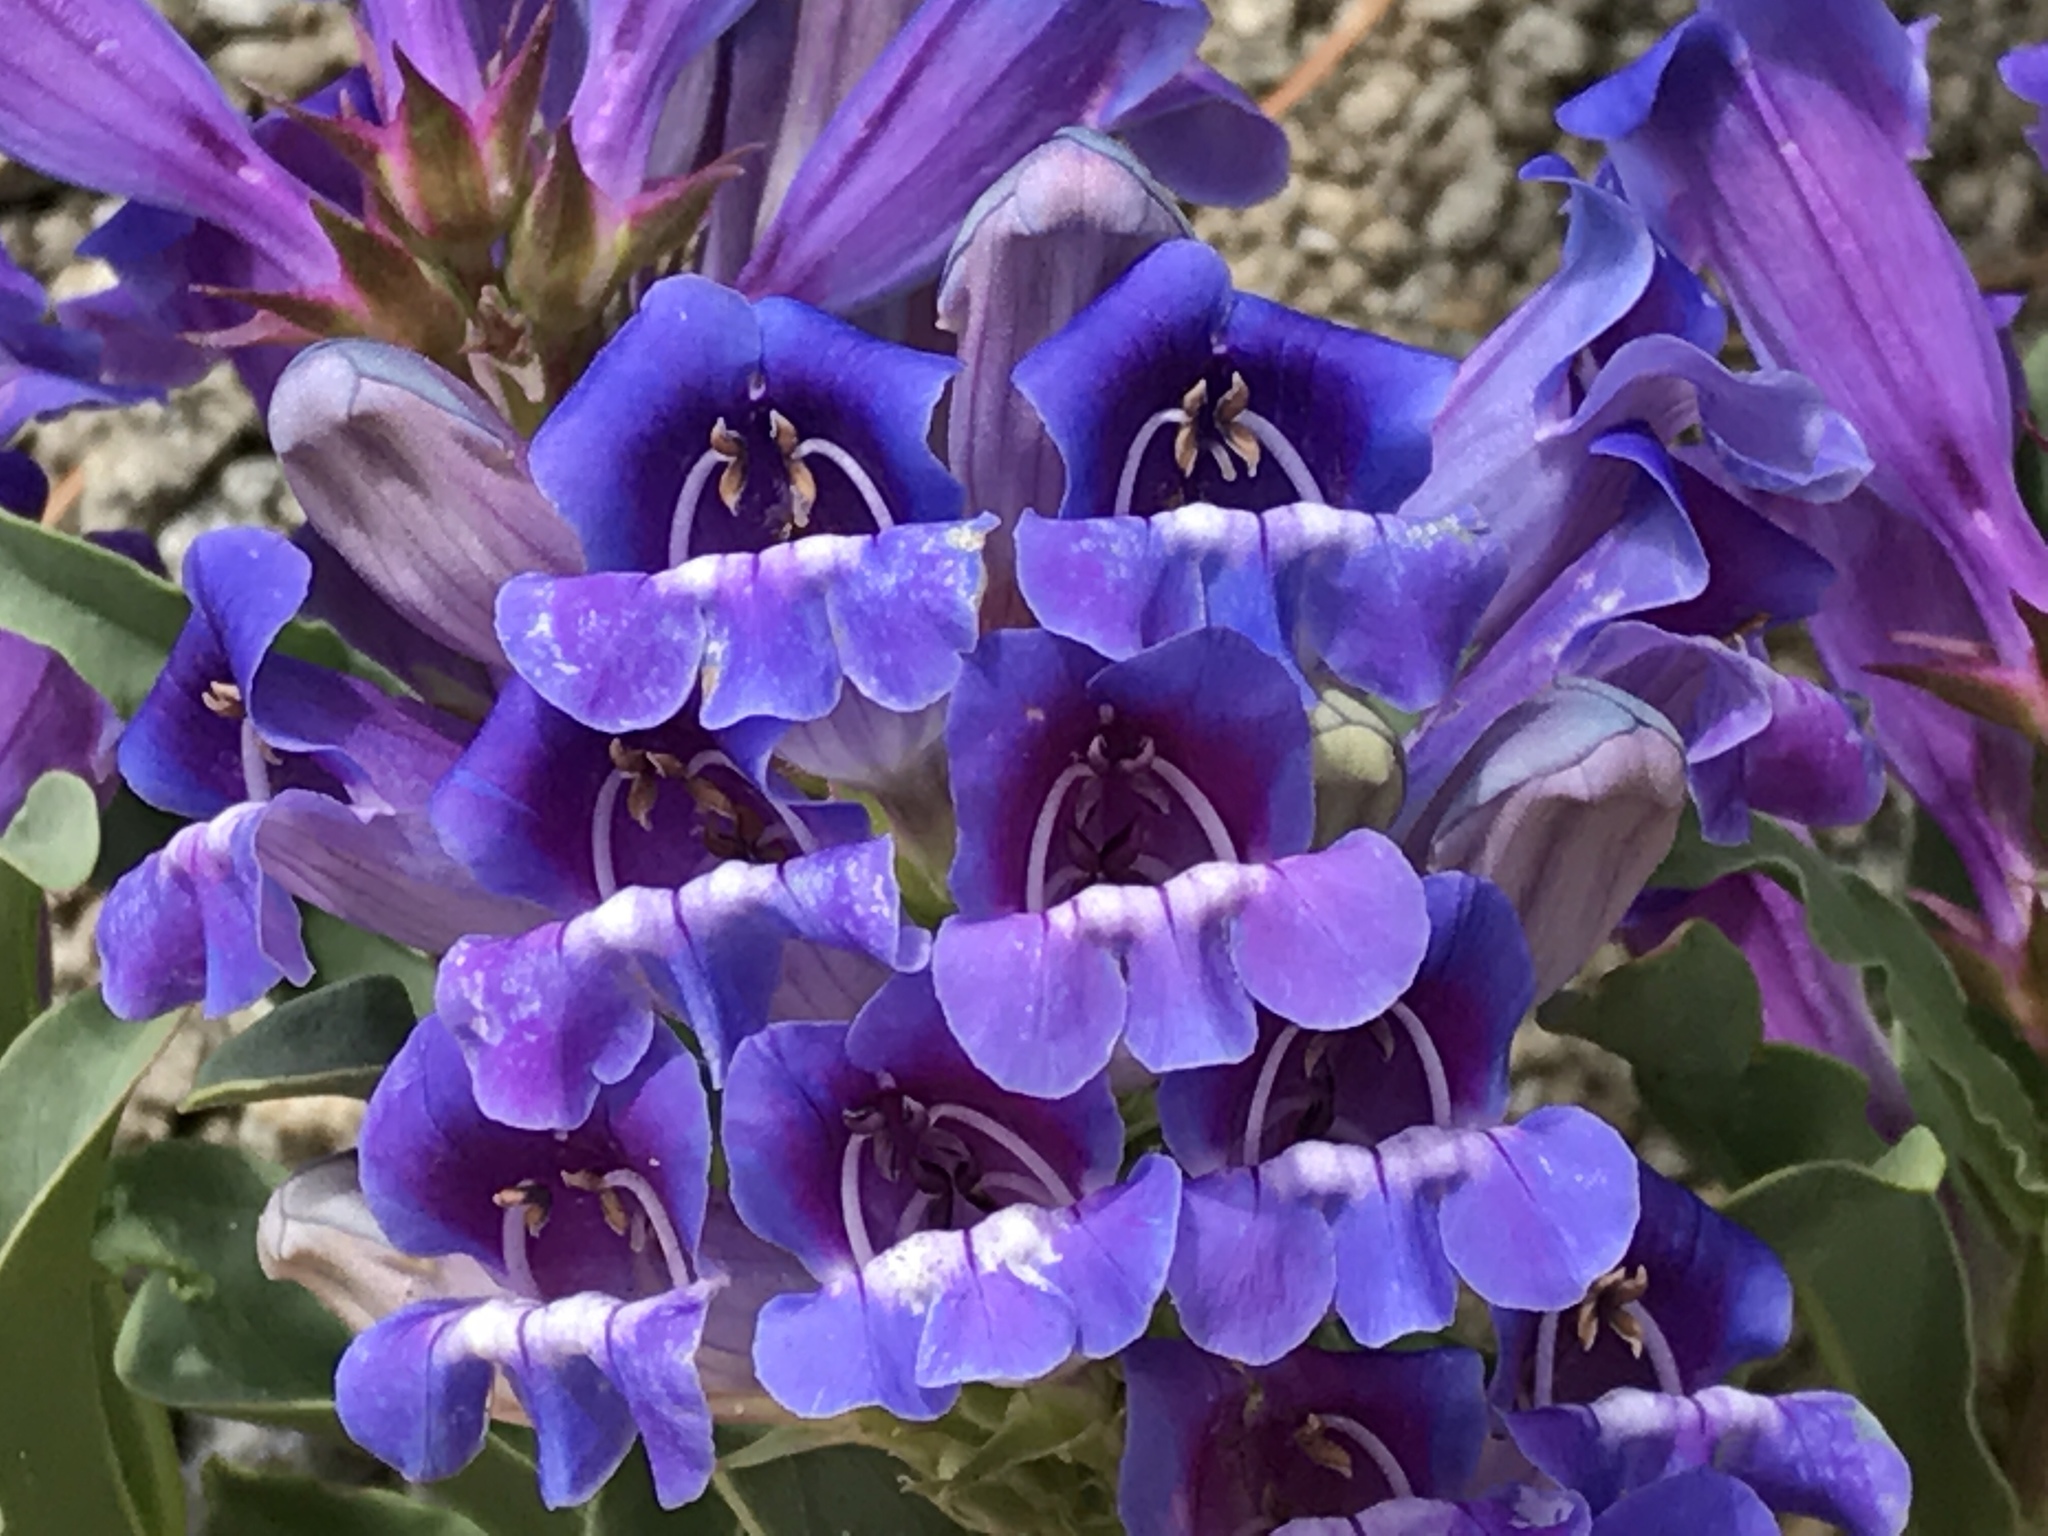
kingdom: Plantae
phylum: Tracheophyta
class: Magnoliopsida
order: Lamiales
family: Plantaginaceae
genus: Penstemon
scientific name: Penstemon speciosus
